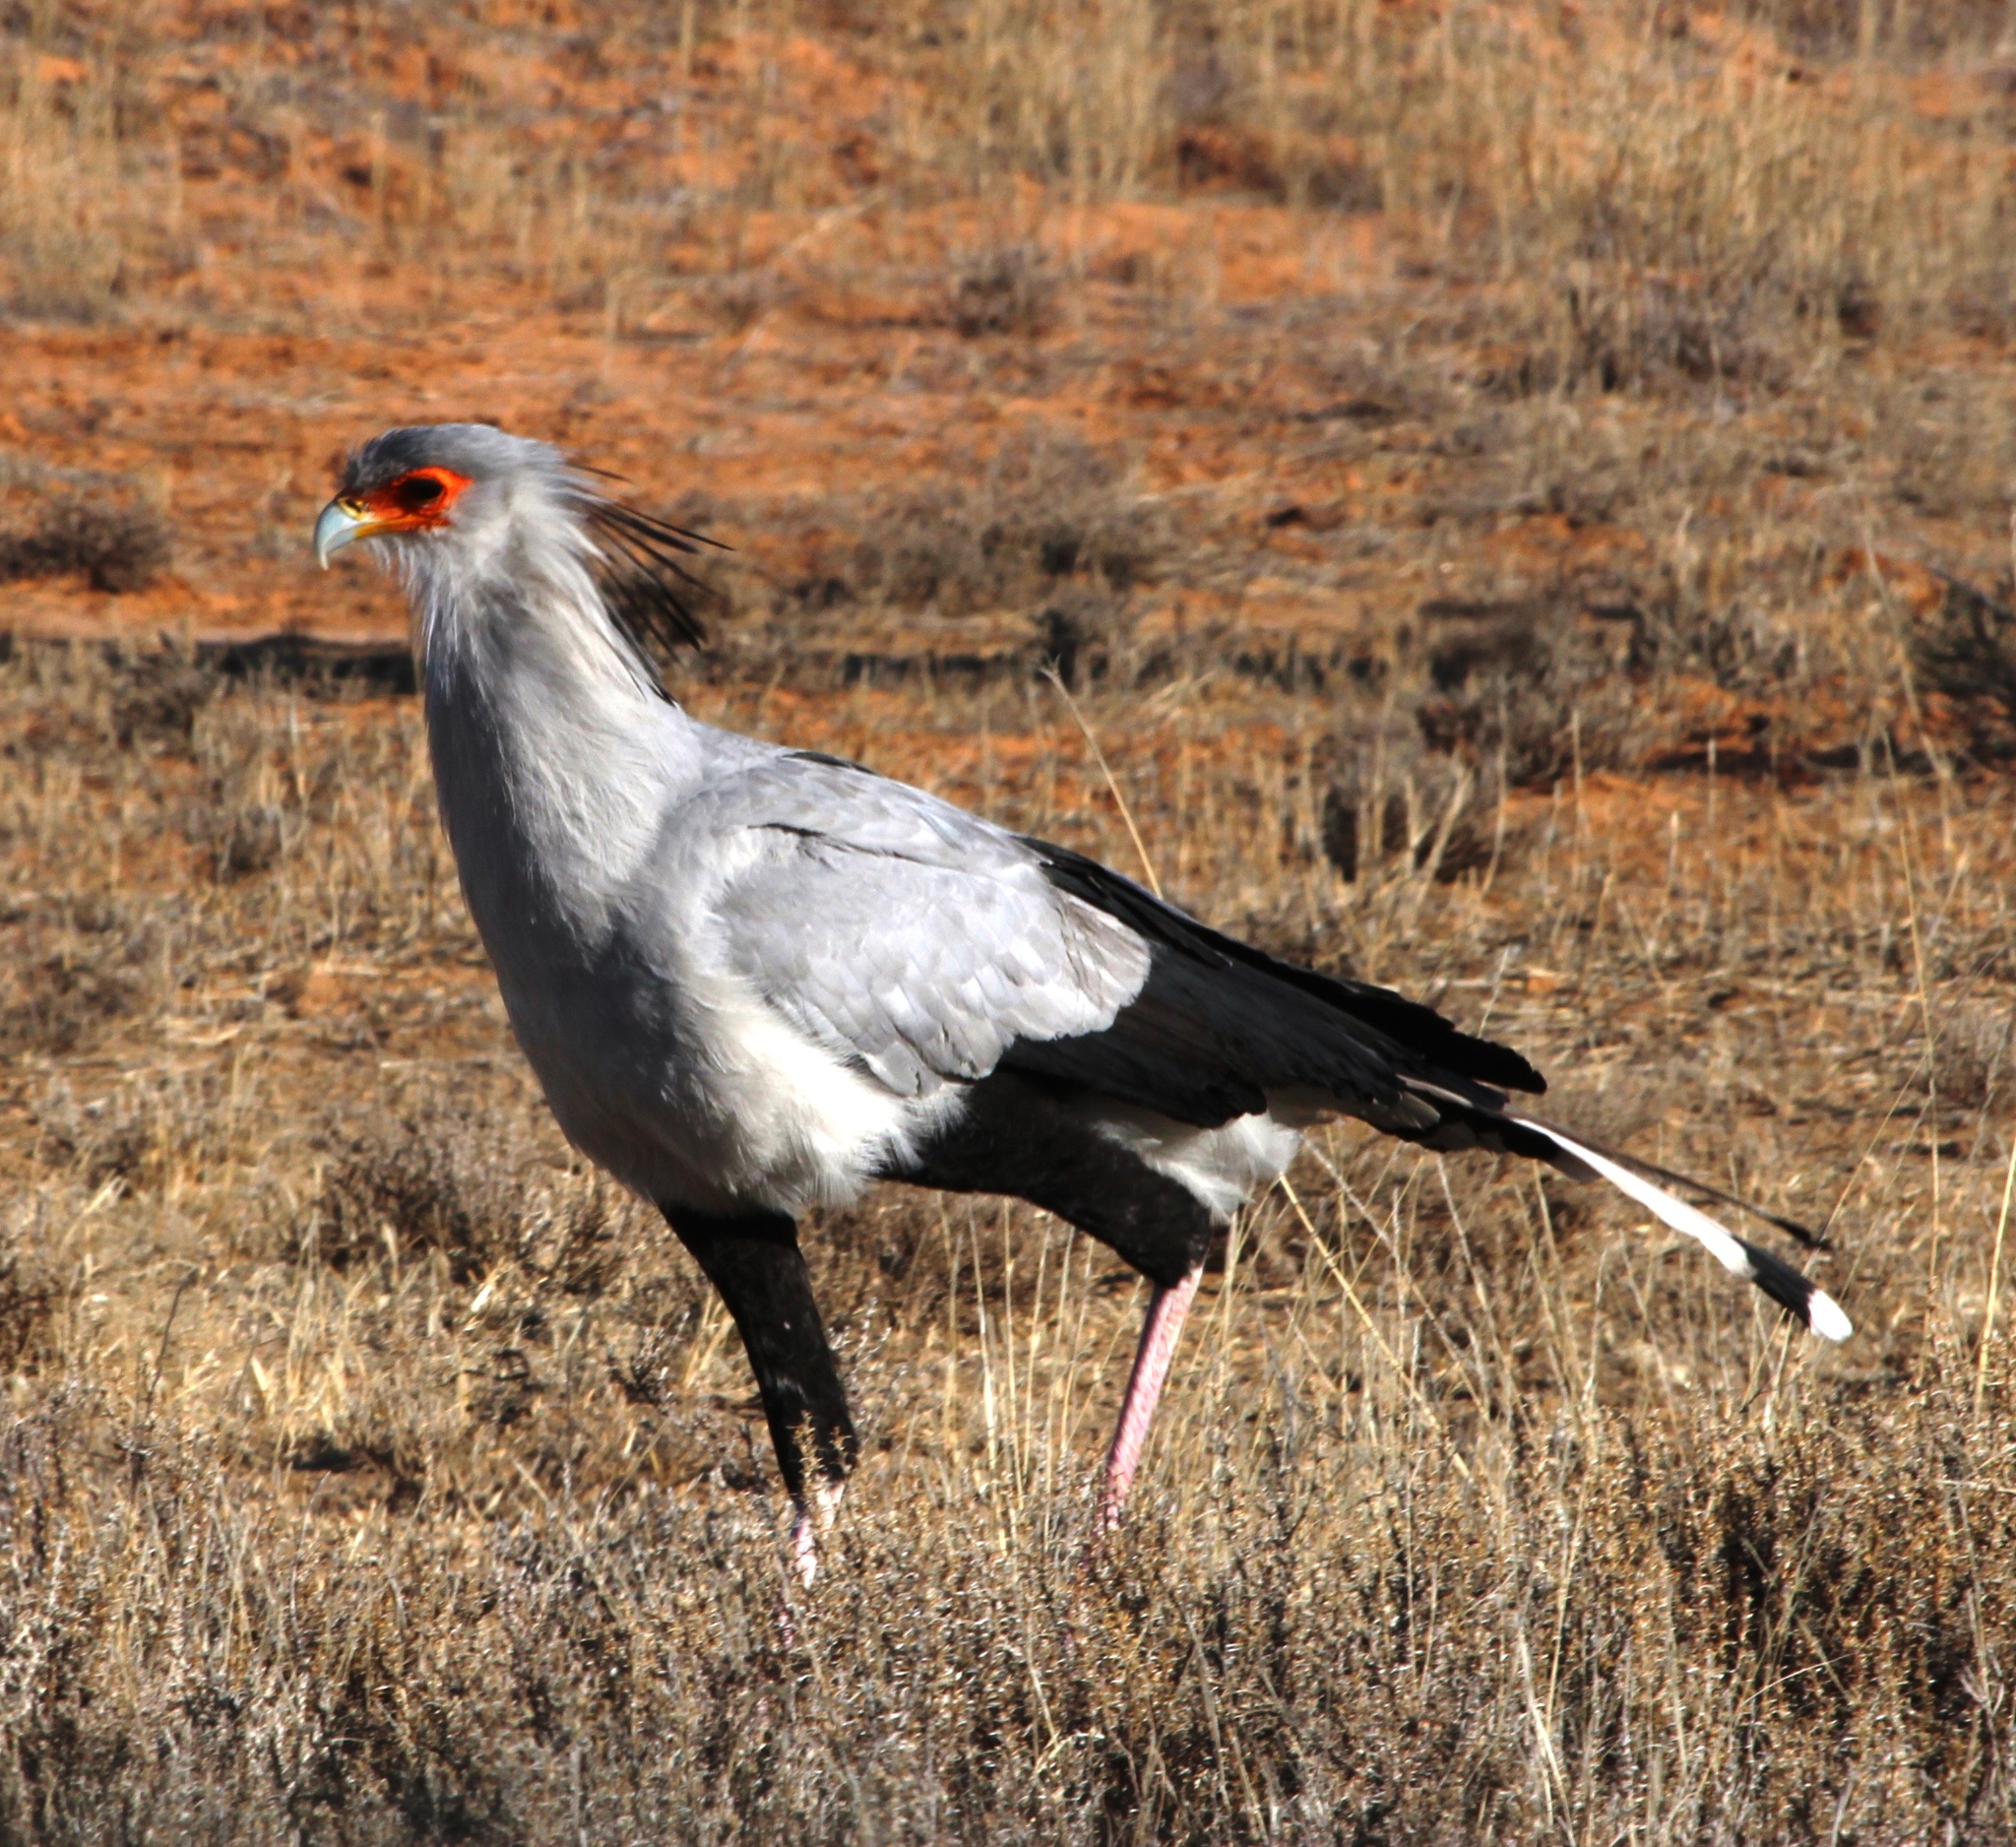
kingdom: Animalia
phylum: Chordata
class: Aves
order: Accipitriformes
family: Sagittariidae
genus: Sagittarius
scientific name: Sagittarius serpentarius
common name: Secretarybird
